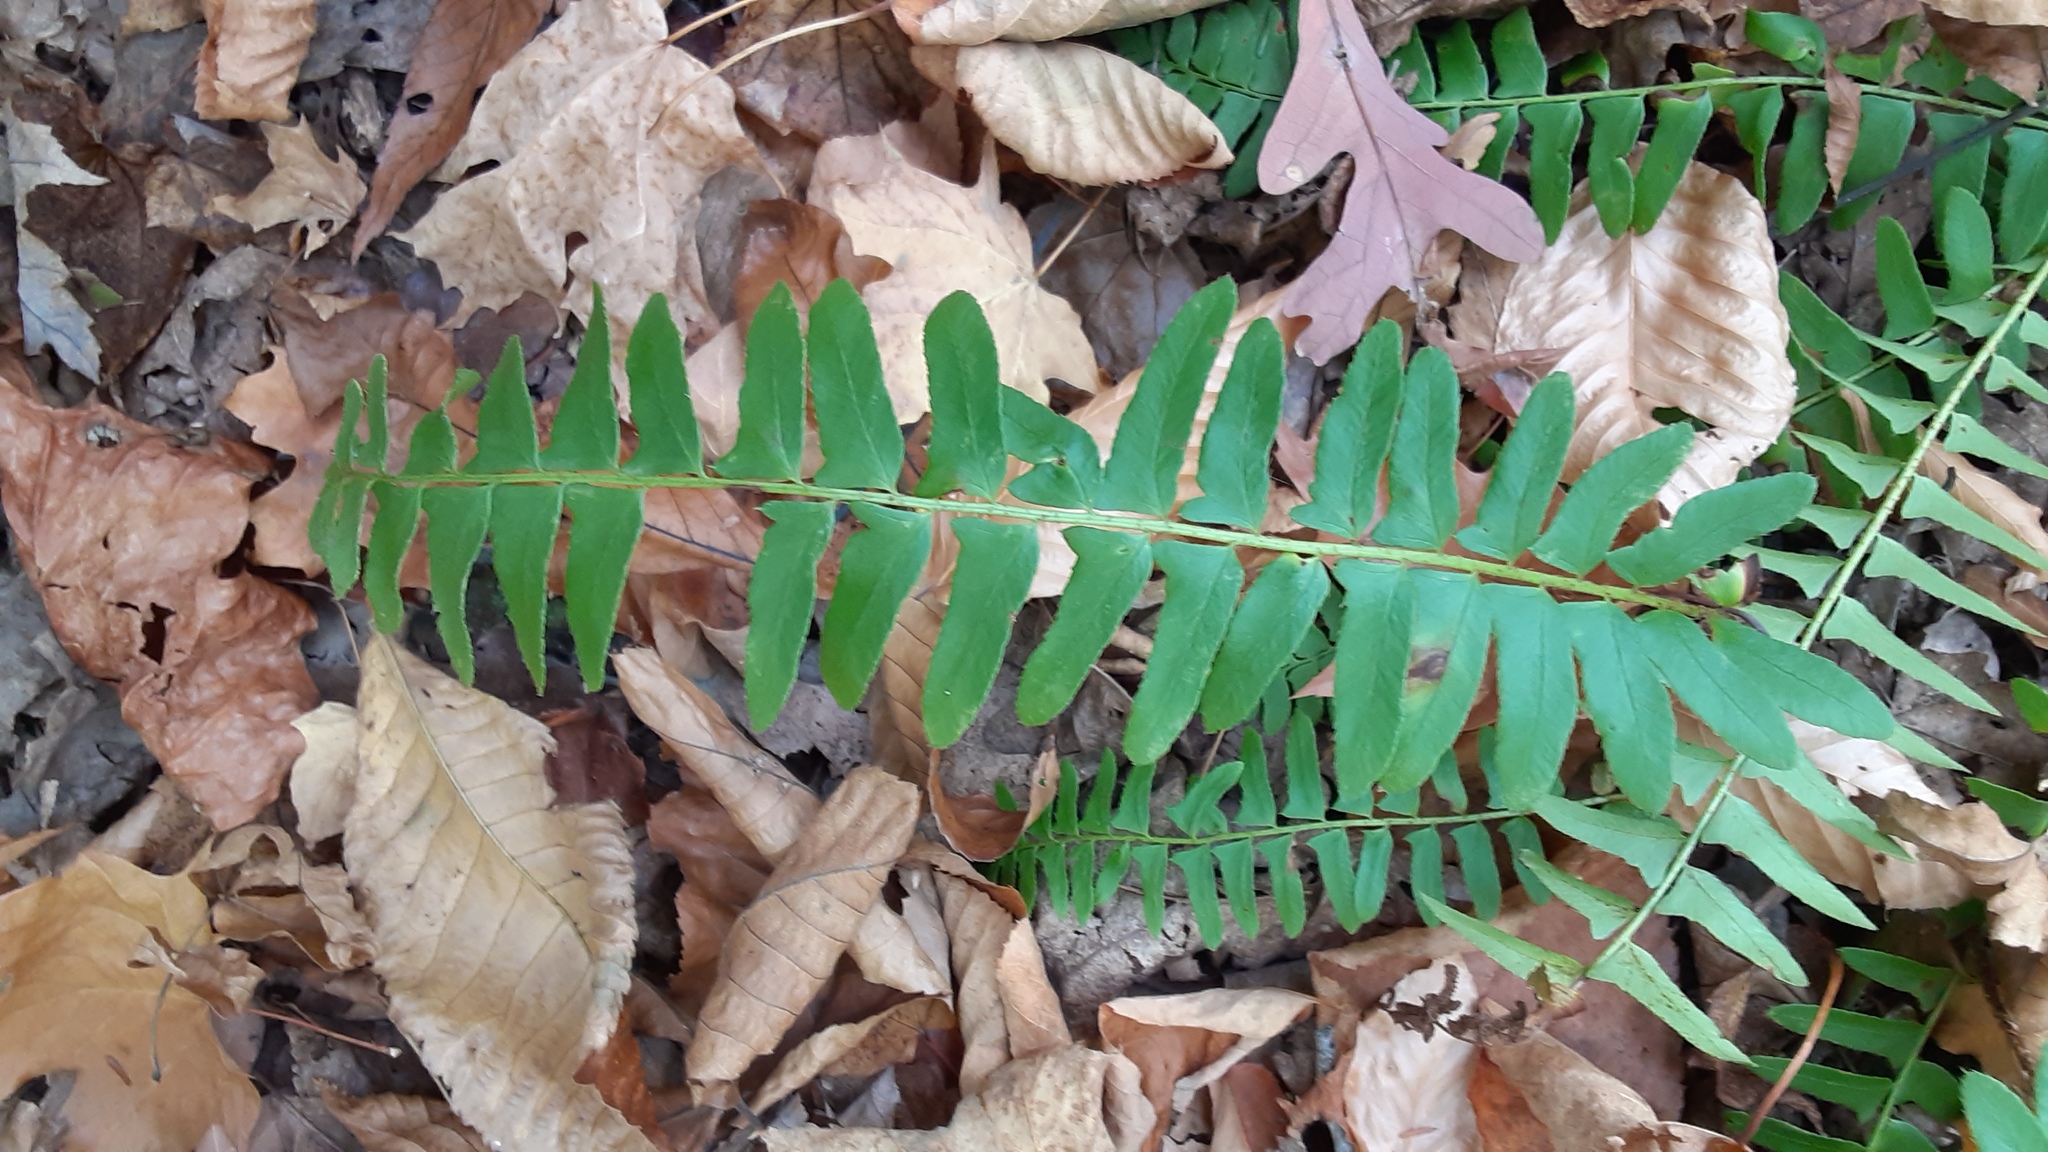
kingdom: Plantae
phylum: Tracheophyta
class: Polypodiopsida
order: Polypodiales
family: Dryopteridaceae
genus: Polystichum
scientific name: Polystichum acrostichoides
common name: Christmas fern
